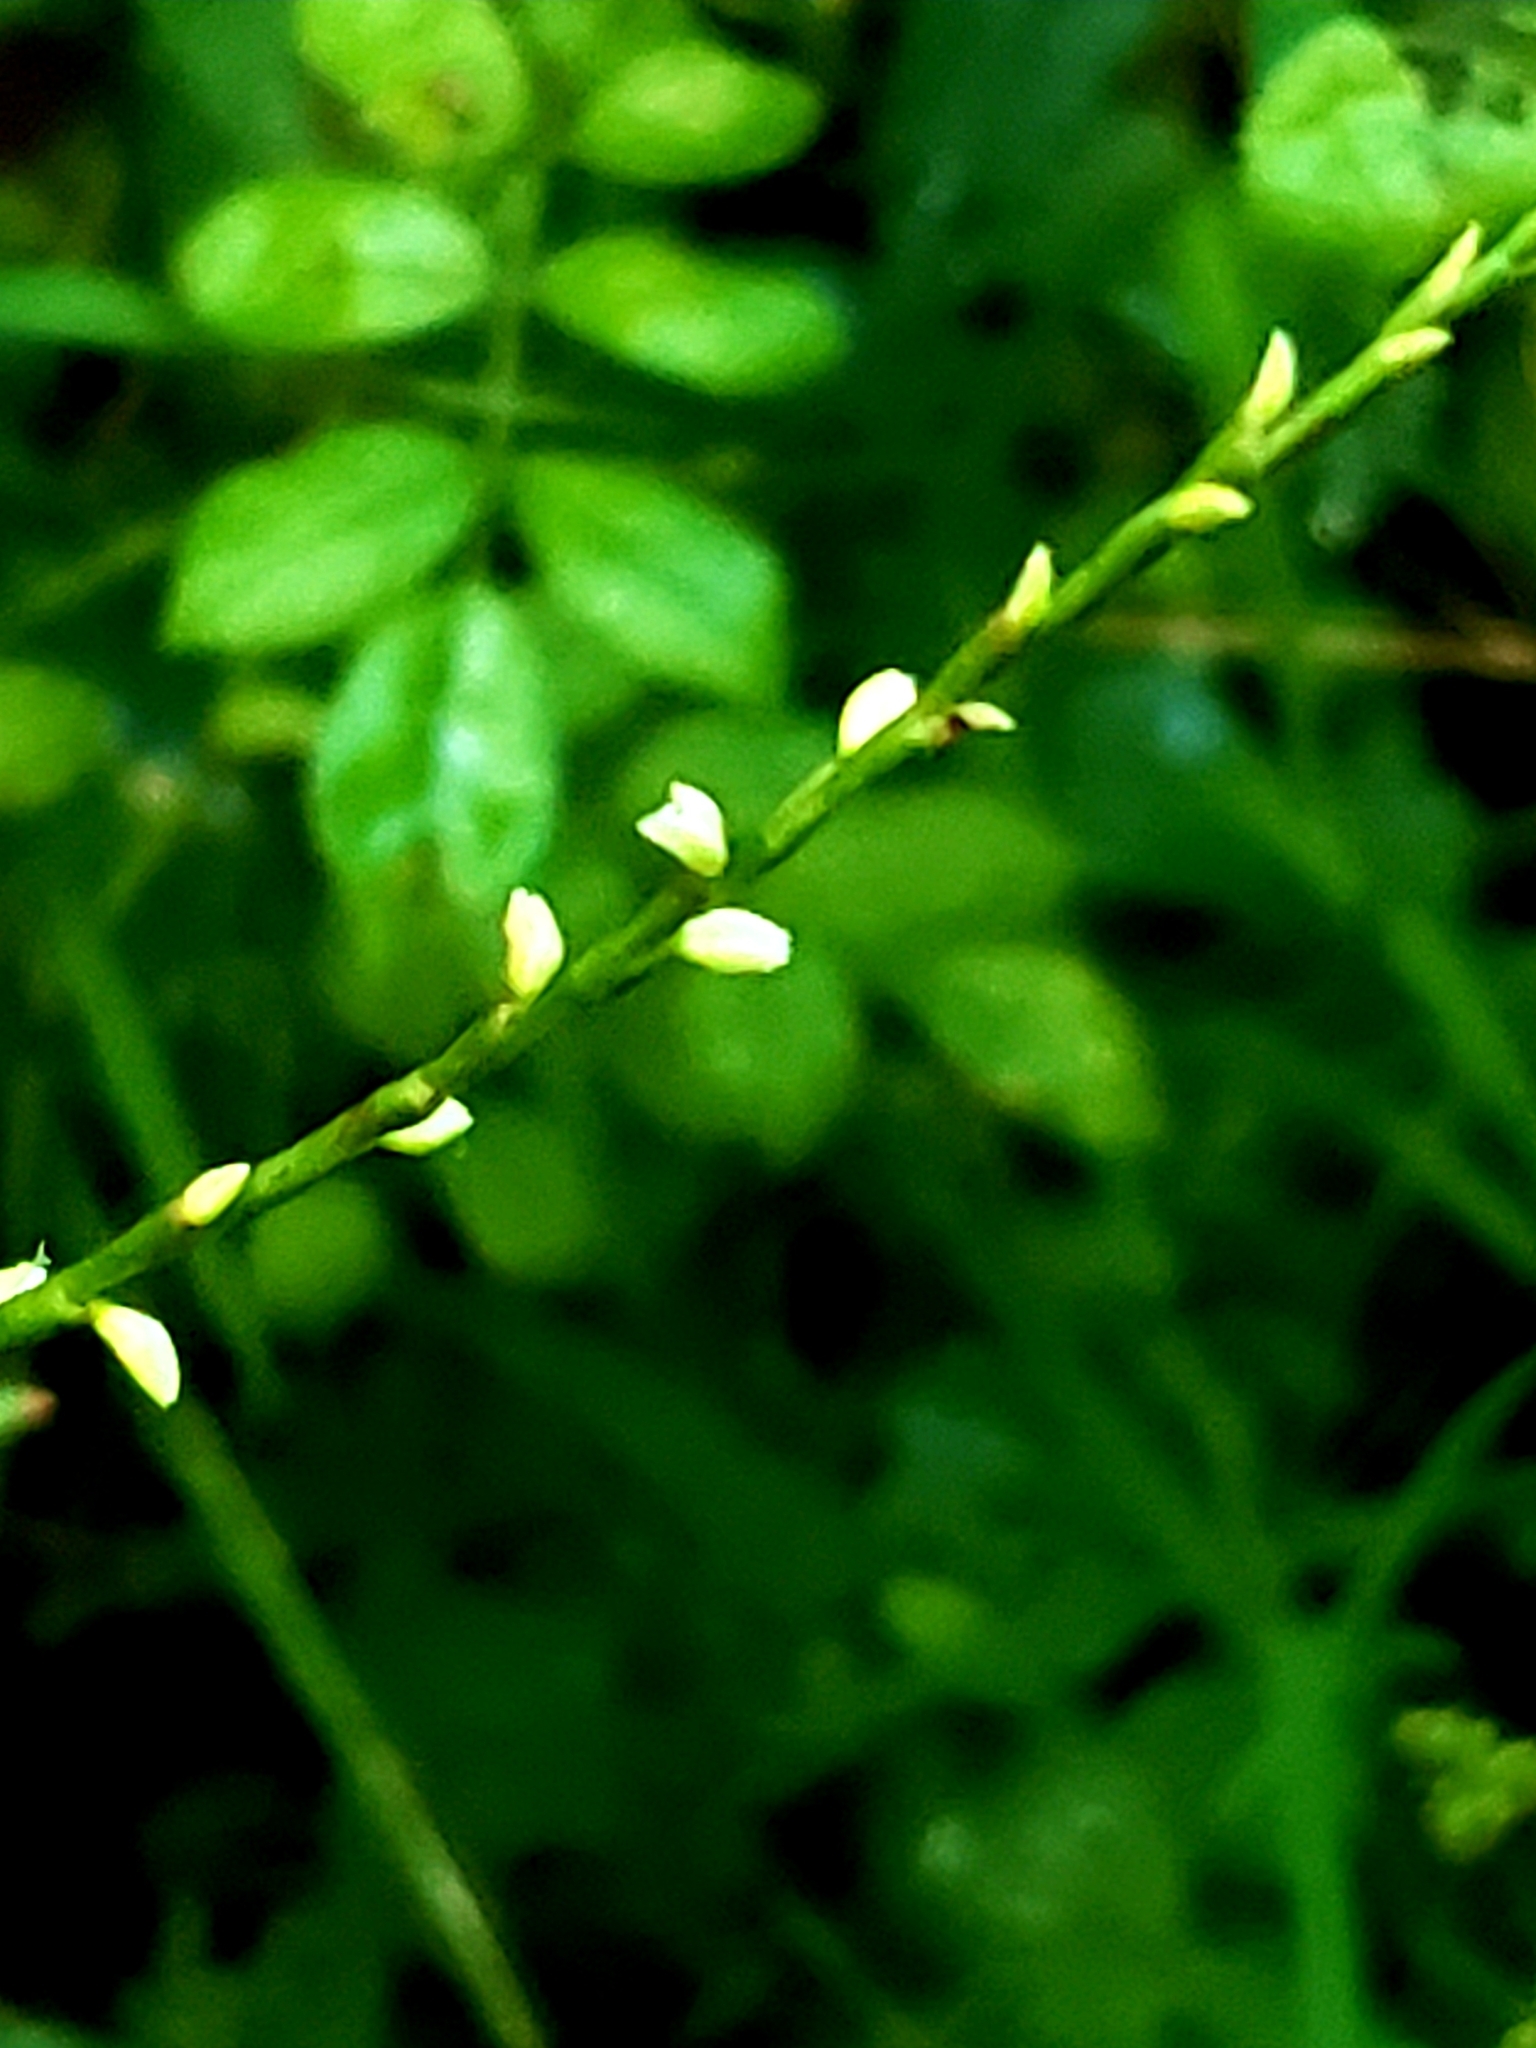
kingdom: Plantae
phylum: Tracheophyta
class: Magnoliopsida
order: Caryophyllales
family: Polygonaceae
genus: Persicaria
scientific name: Persicaria virginiana
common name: Jumpseed
